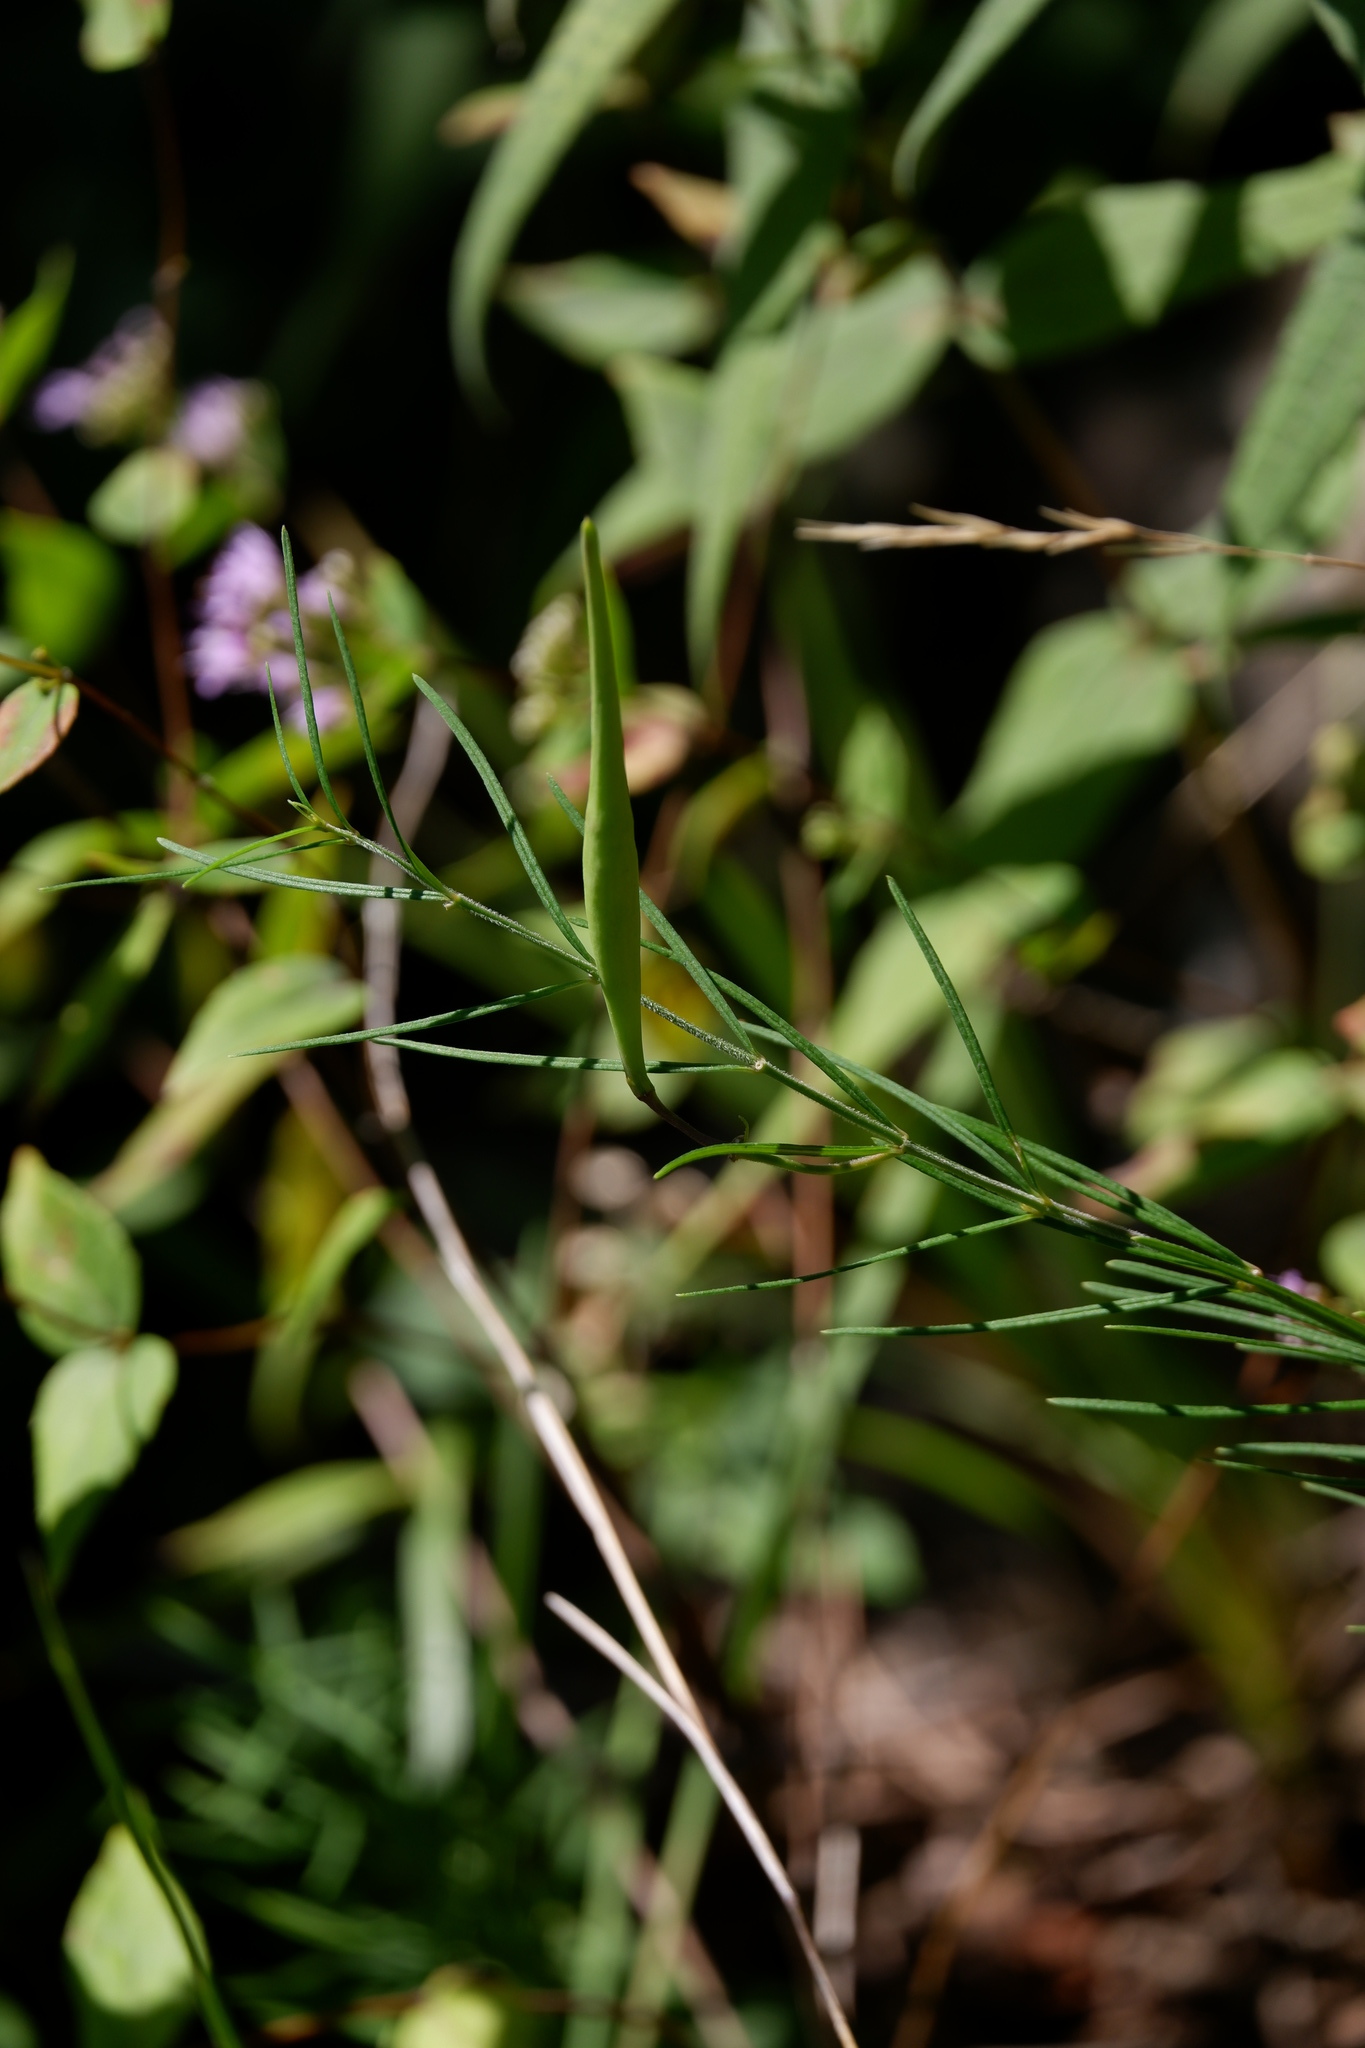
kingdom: Plantae
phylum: Tracheophyta
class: Magnoliopsida
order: Gentianales
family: Apocynaceae
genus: Asclepias
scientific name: Asclepias verticillata
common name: Eastern whorled milkweed
